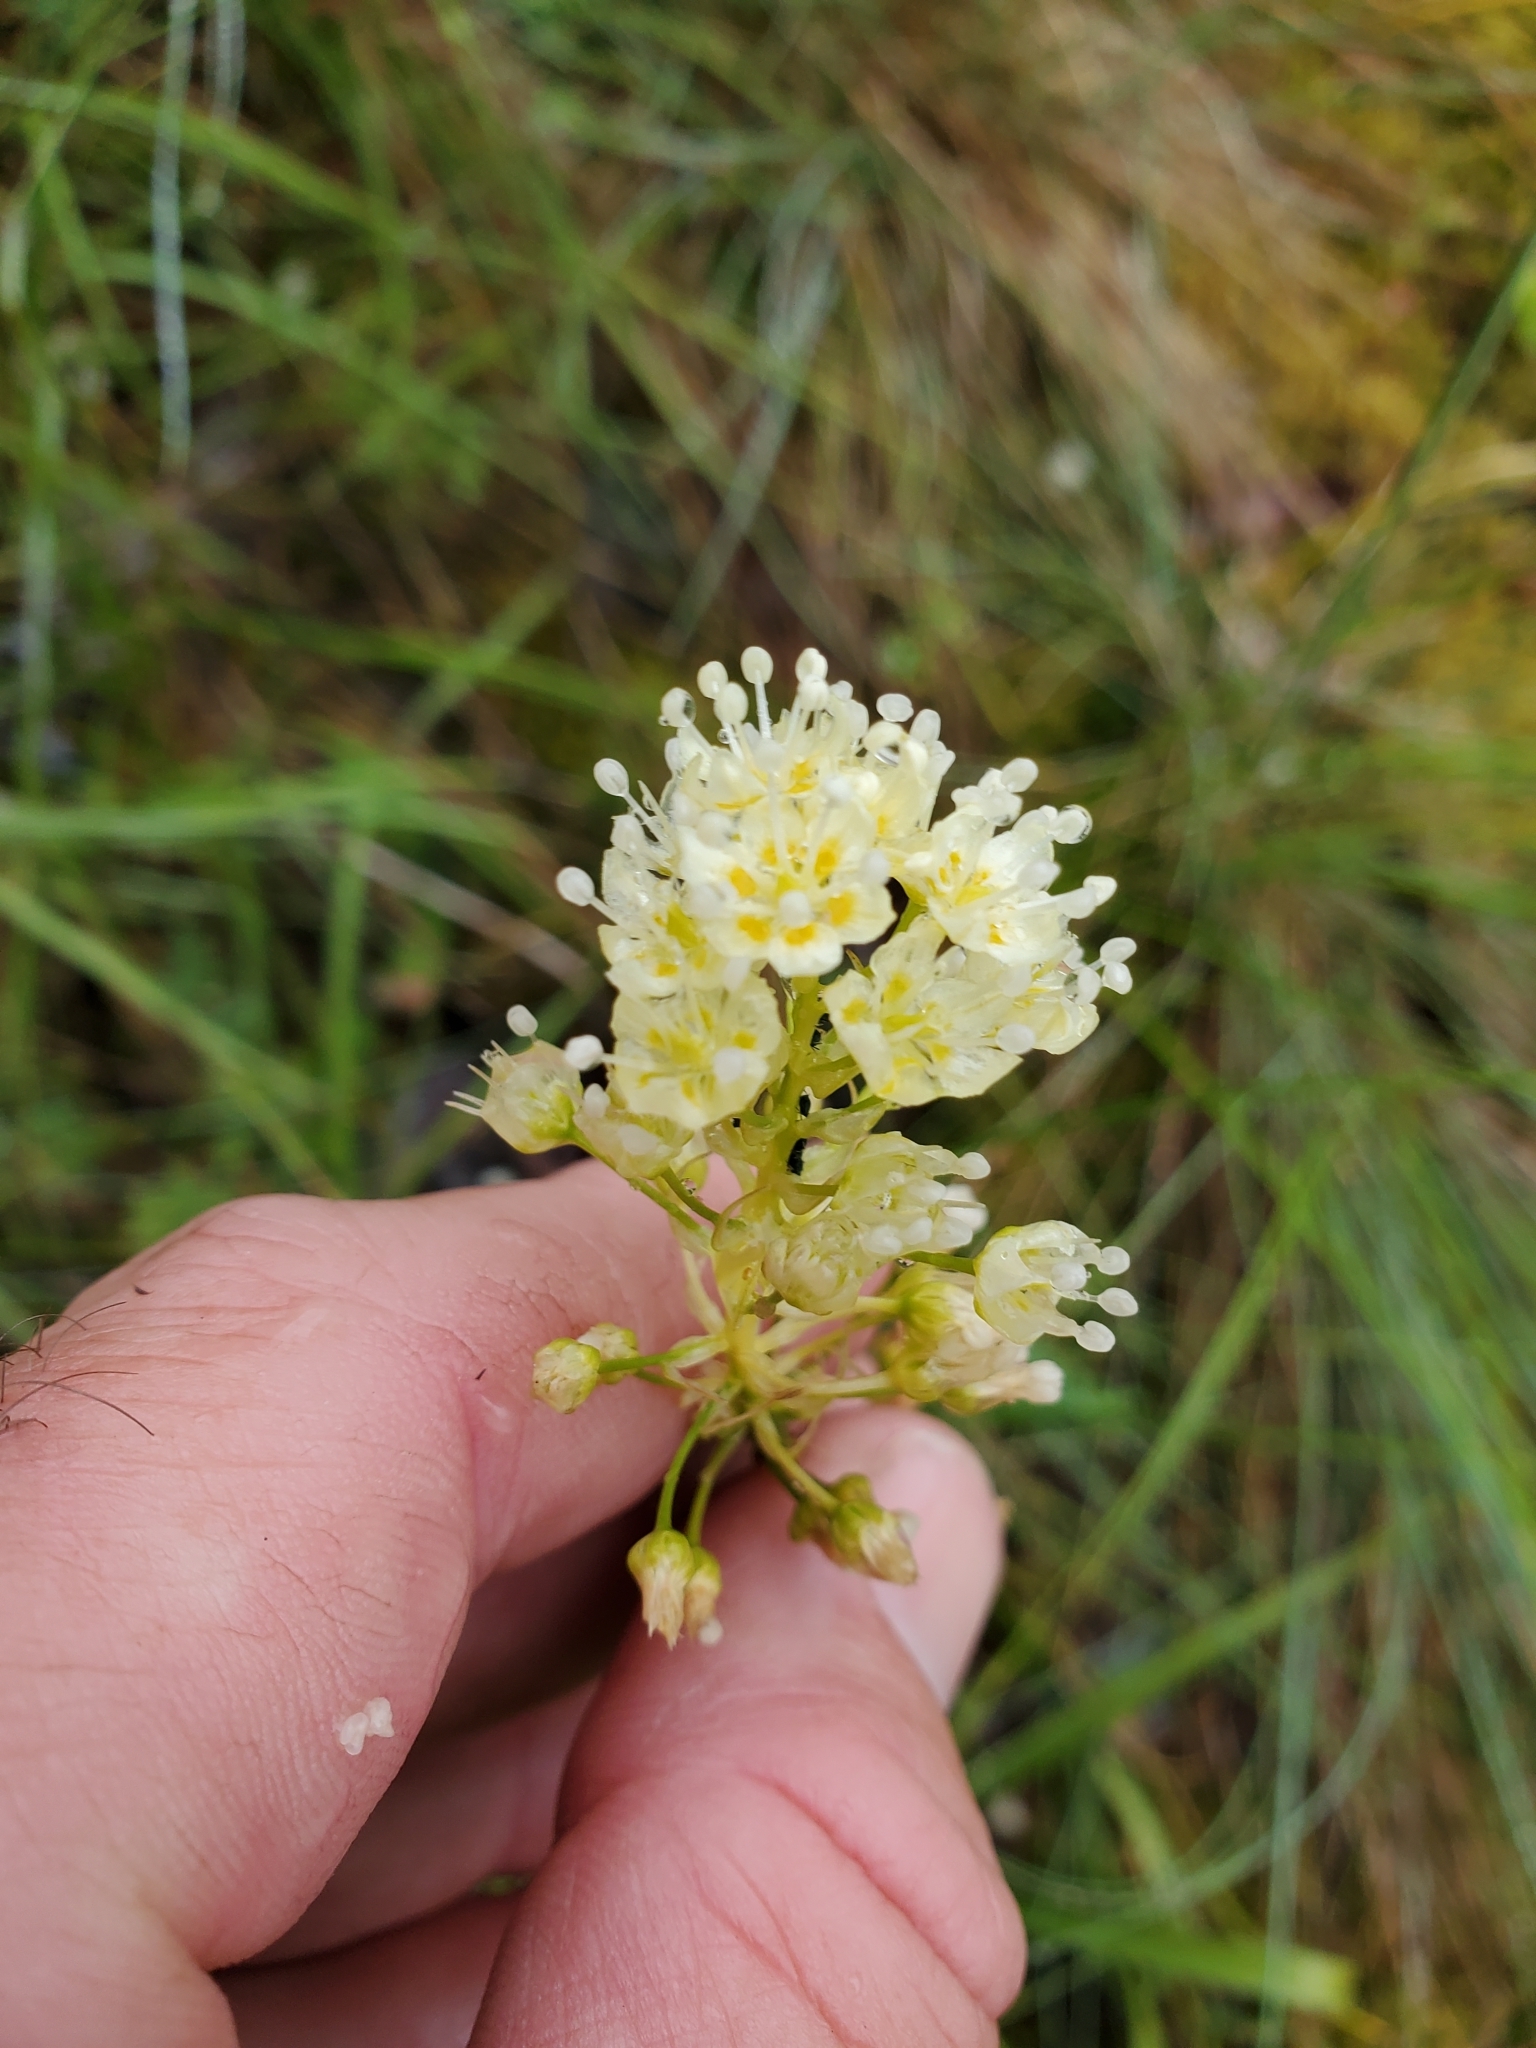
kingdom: Plantae
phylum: Tracheophyta
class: Liliopsida
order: Liliales
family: Melanthiaceae
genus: Toxicoscordion
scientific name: Toxicoscordion venenosum
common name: Meadow death camas
